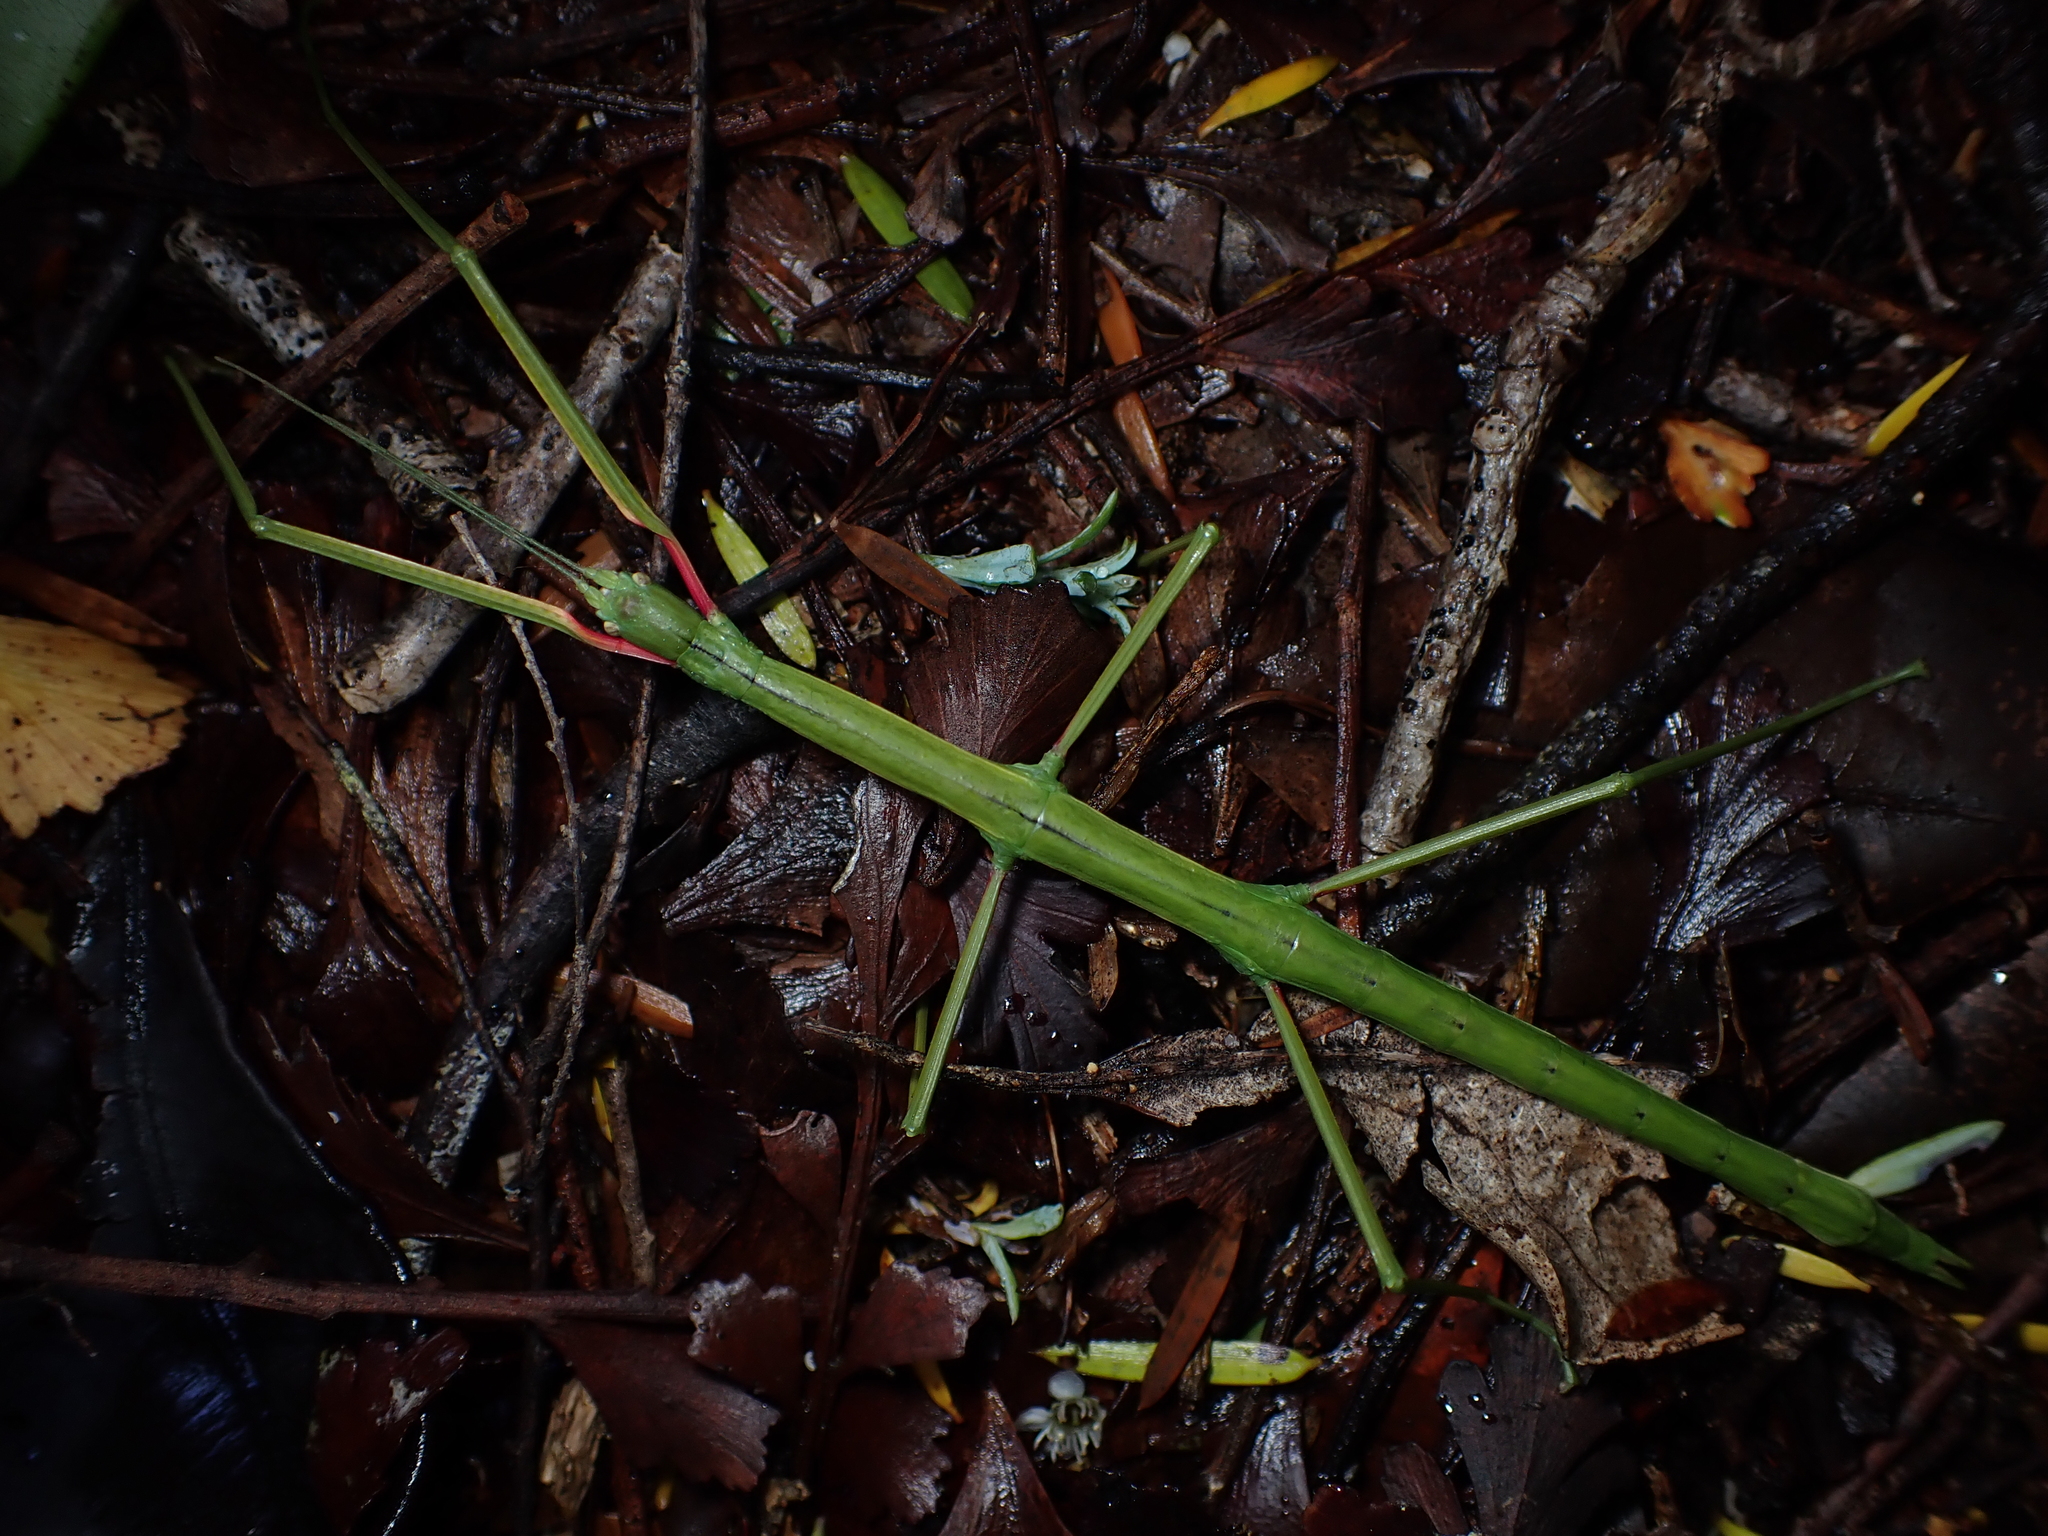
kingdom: Animalia
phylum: Arthropoda
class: Insecta
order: Phasmida
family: Phasmatidae
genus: Clitarchus
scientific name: Clitarchus hookeri
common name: Smooth stick insect
